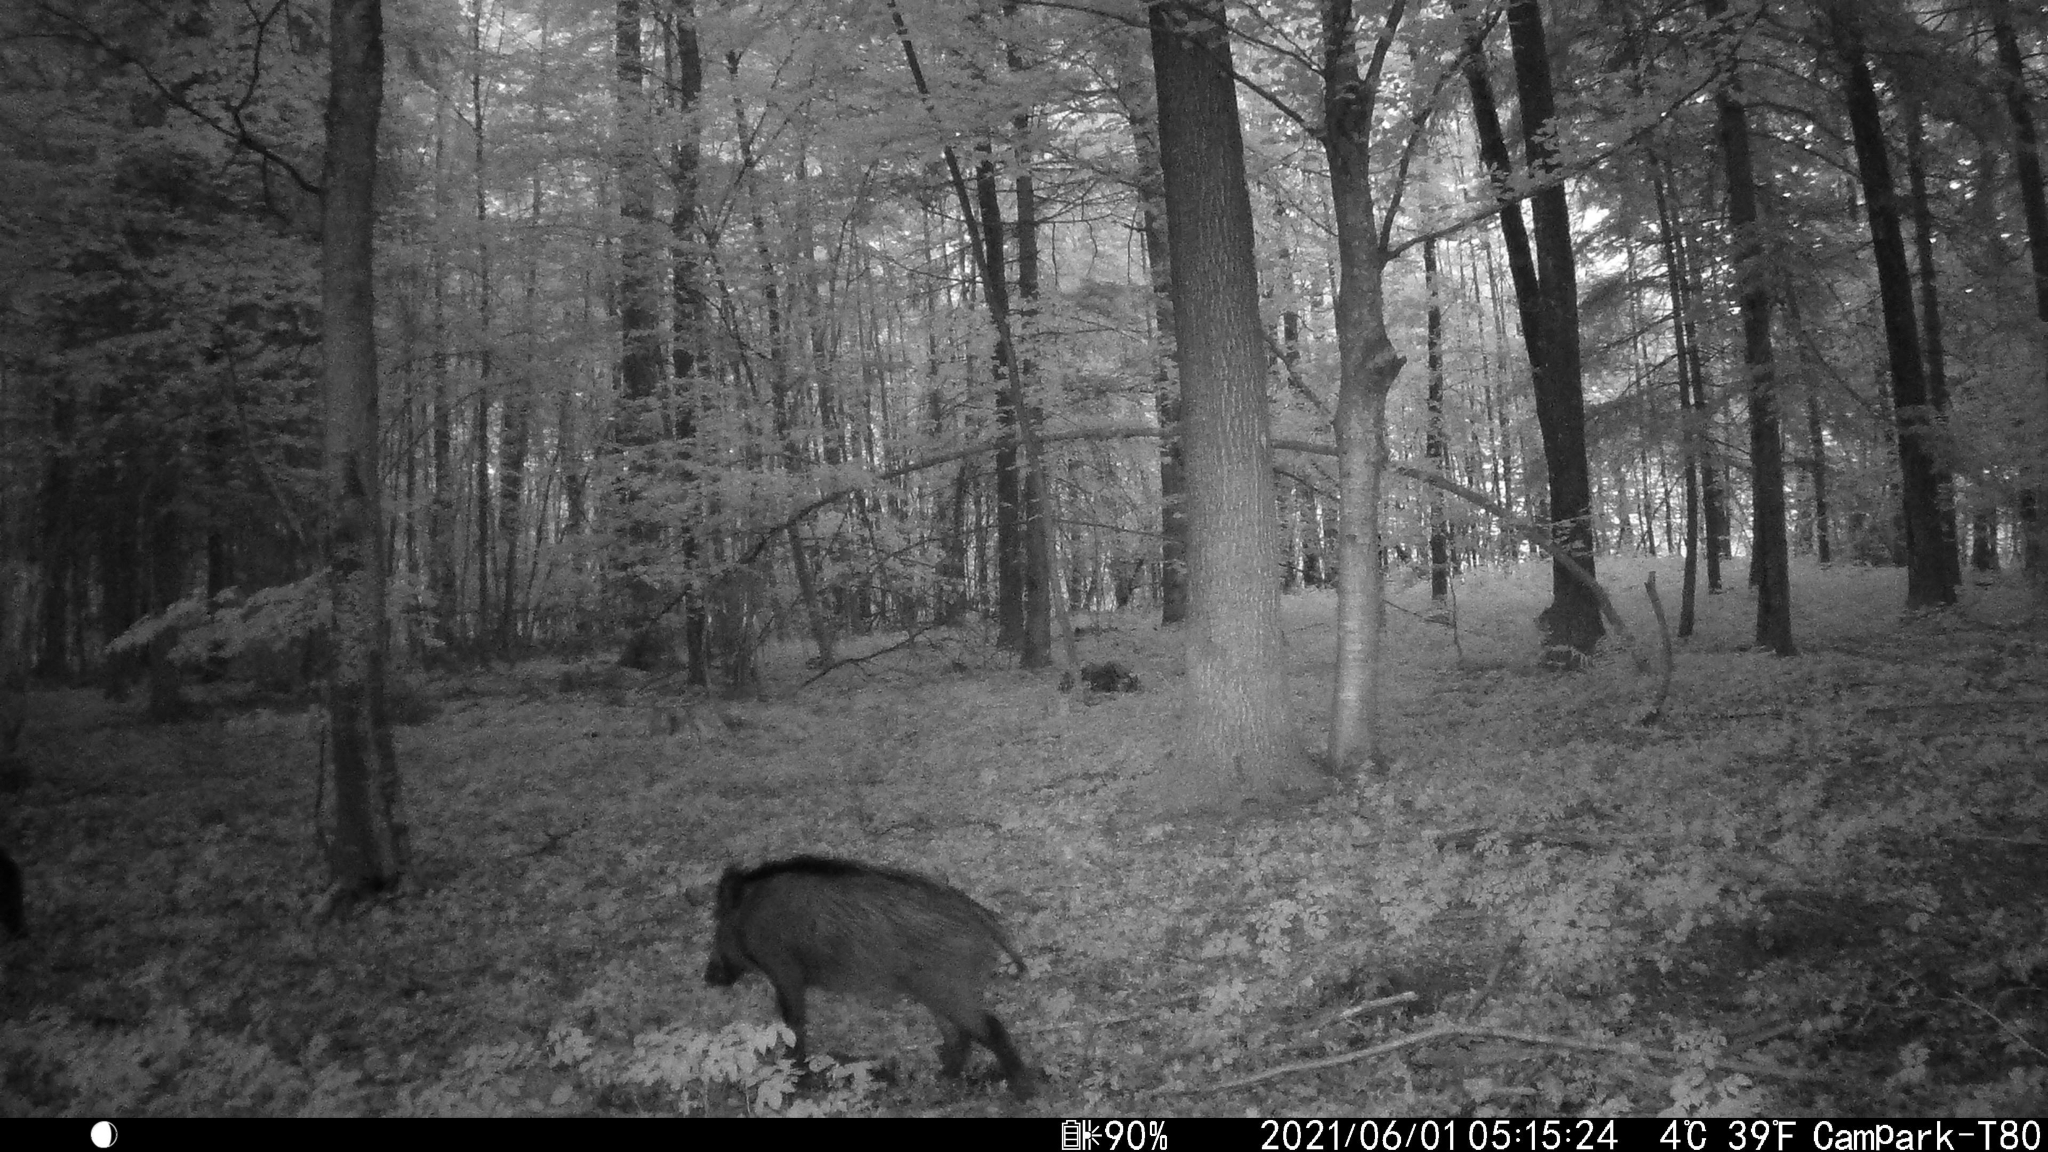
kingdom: Animalia
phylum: Chordata
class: Mammalia
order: Artiodactyla
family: Suidae
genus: Sus
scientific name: Sus scrofa
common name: Wild boar
